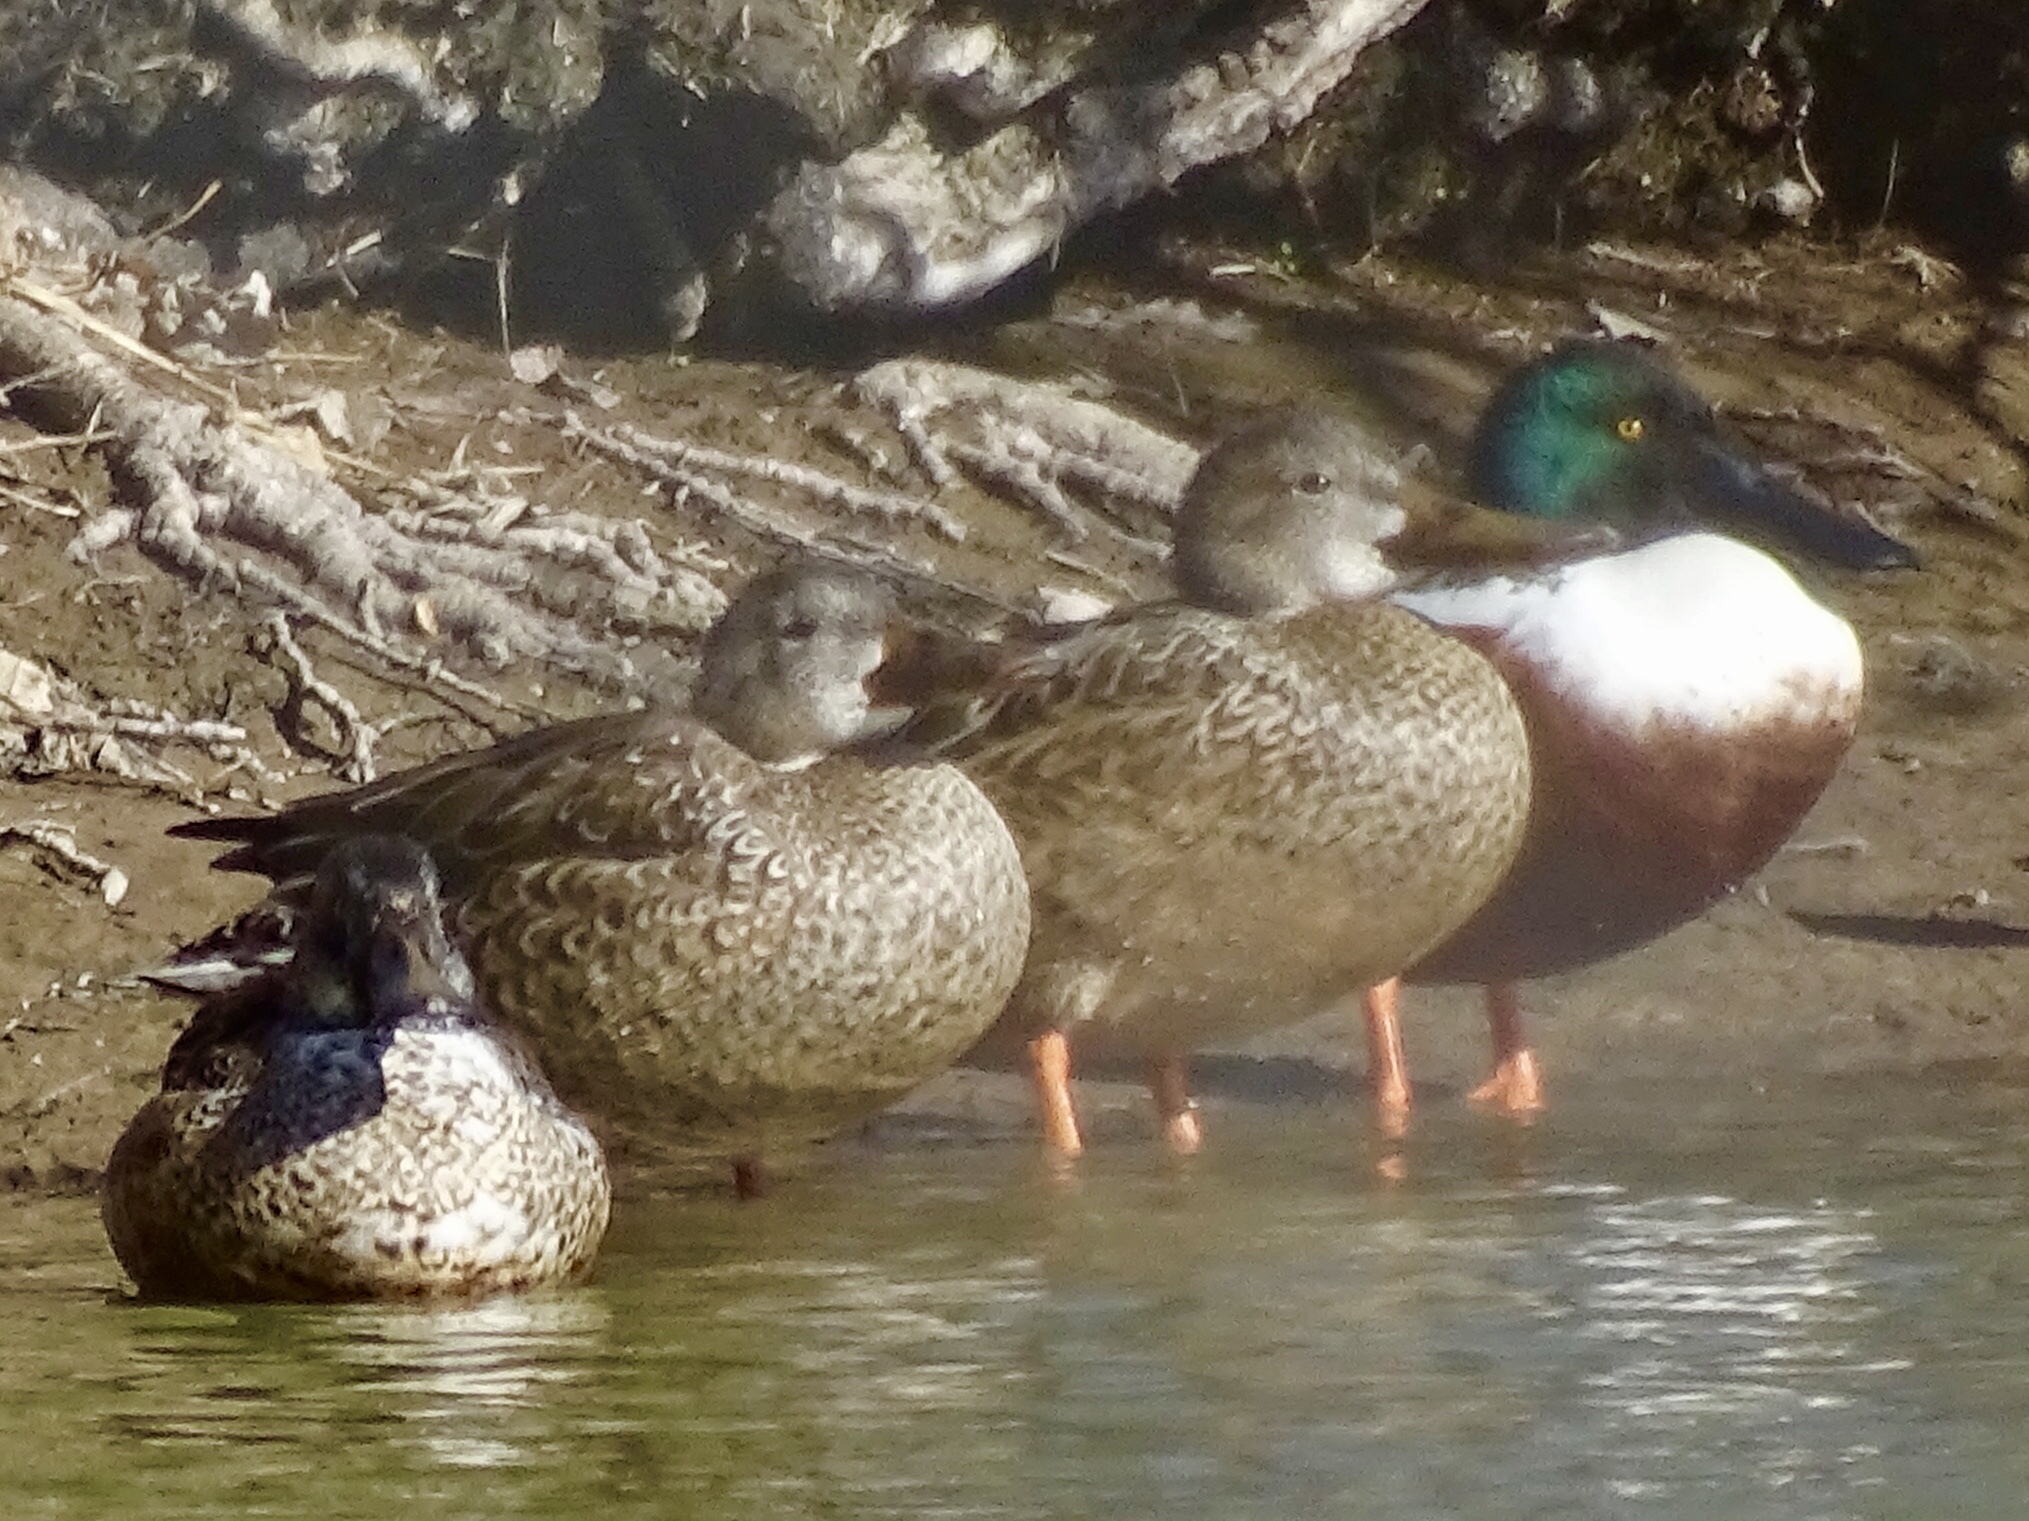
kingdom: Animalia
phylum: Chordata
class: Aves
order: Anseriformes
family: Anatidae
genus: Spatula
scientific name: Spatula clypeata
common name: Northern shoveler
